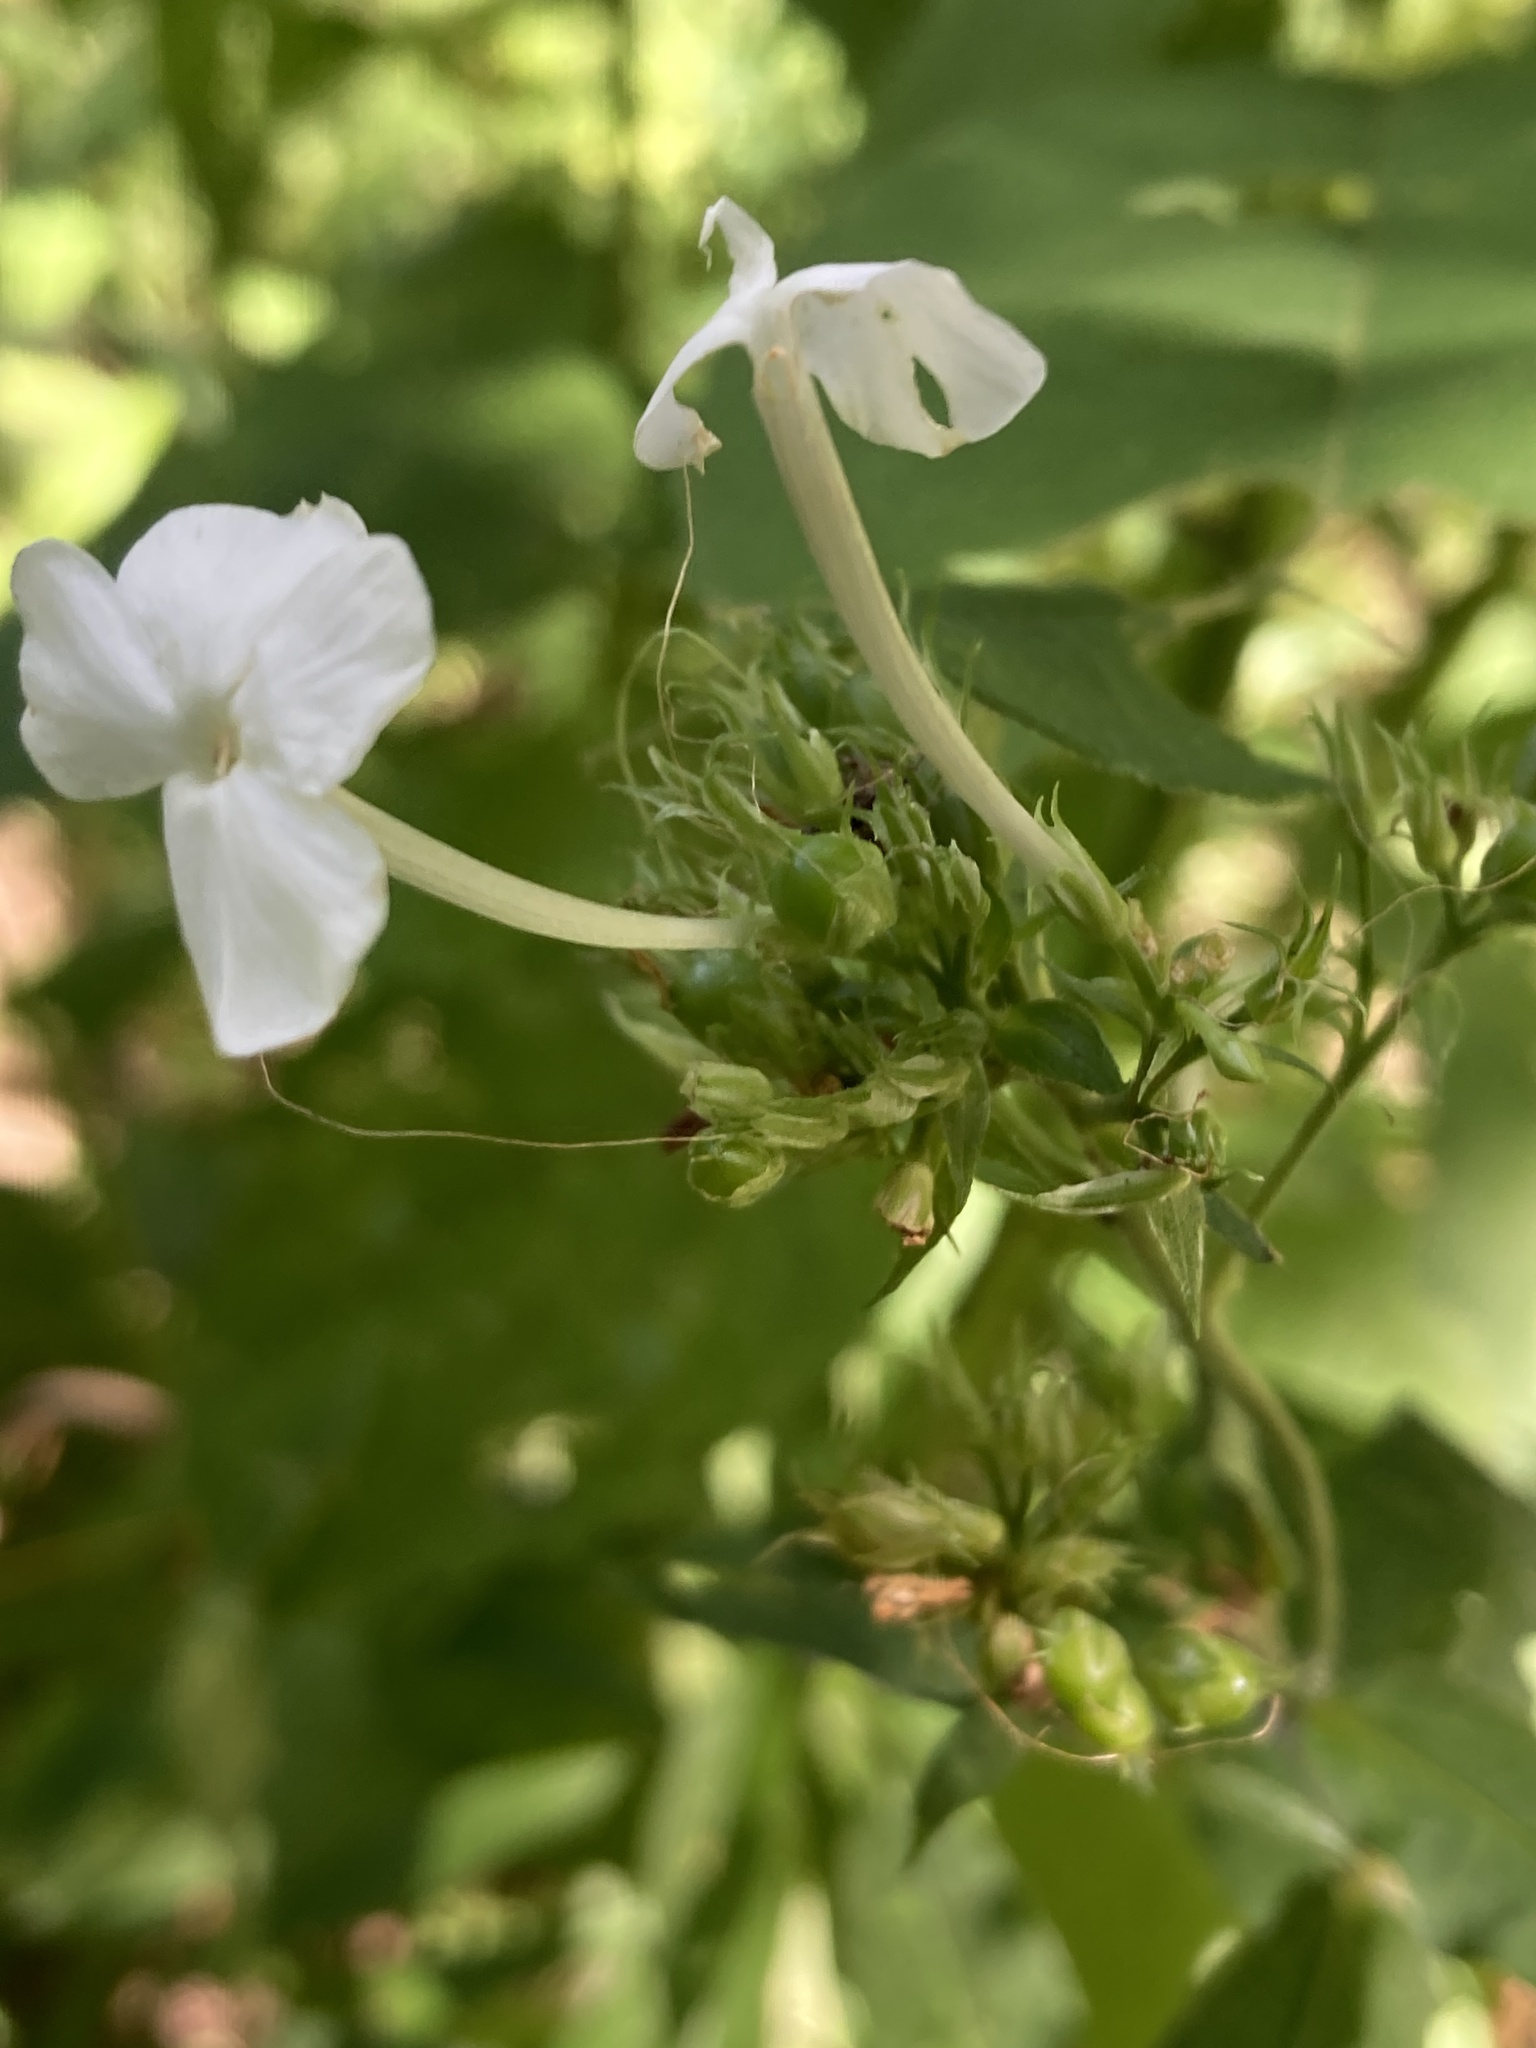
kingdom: Plantae
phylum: Tracheophyta
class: Magnoliopsida
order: Ericales
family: Polemoniaceae
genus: Phlox
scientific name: Phlox paniculata
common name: Fall phlox
